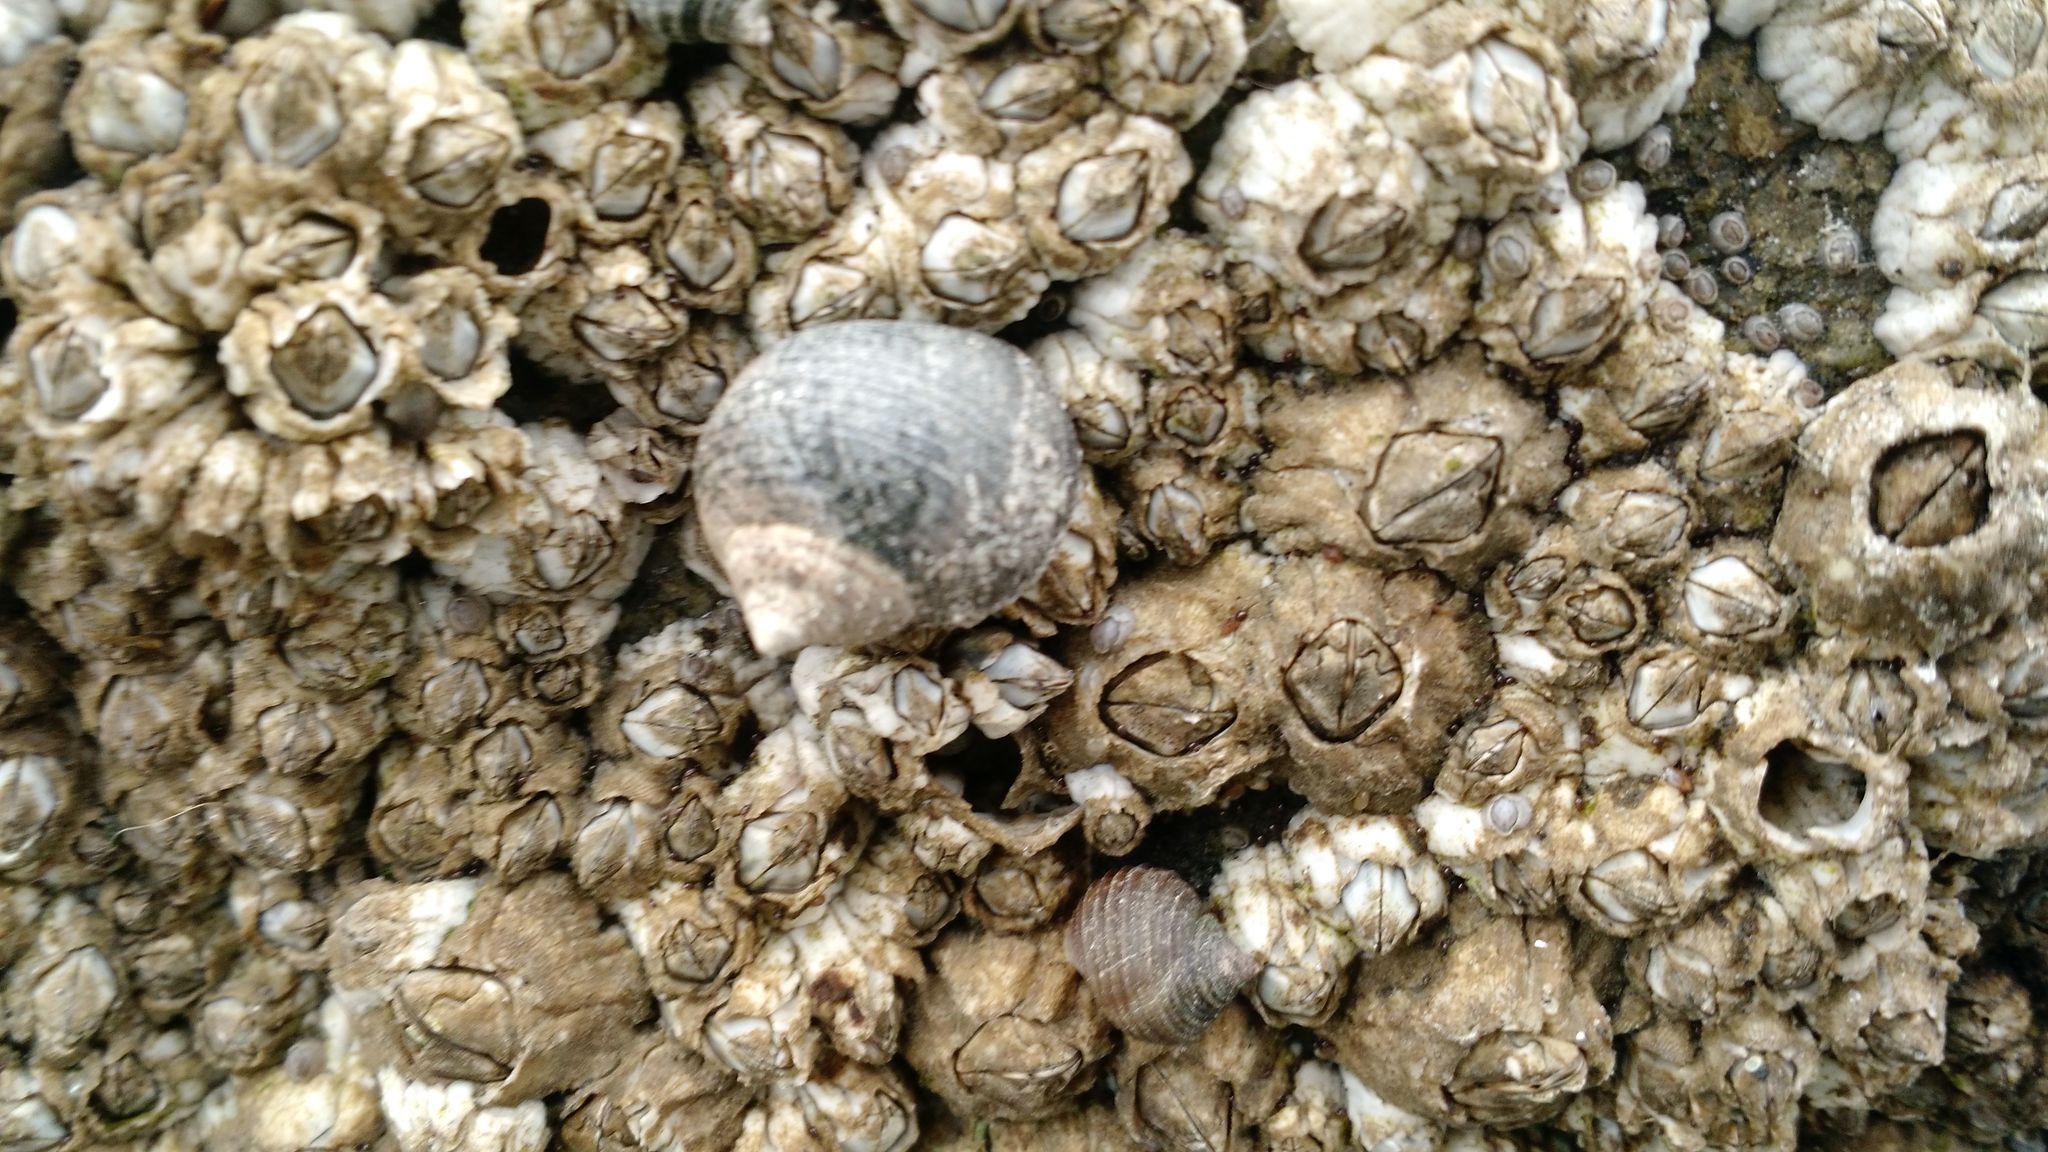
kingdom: Animalia
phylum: Arthropoda
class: Maxillopoda
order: Sessilia
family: Archaeobalanidae
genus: Semibalanus
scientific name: Semibalanus balanoides
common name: Acorn barnacle
